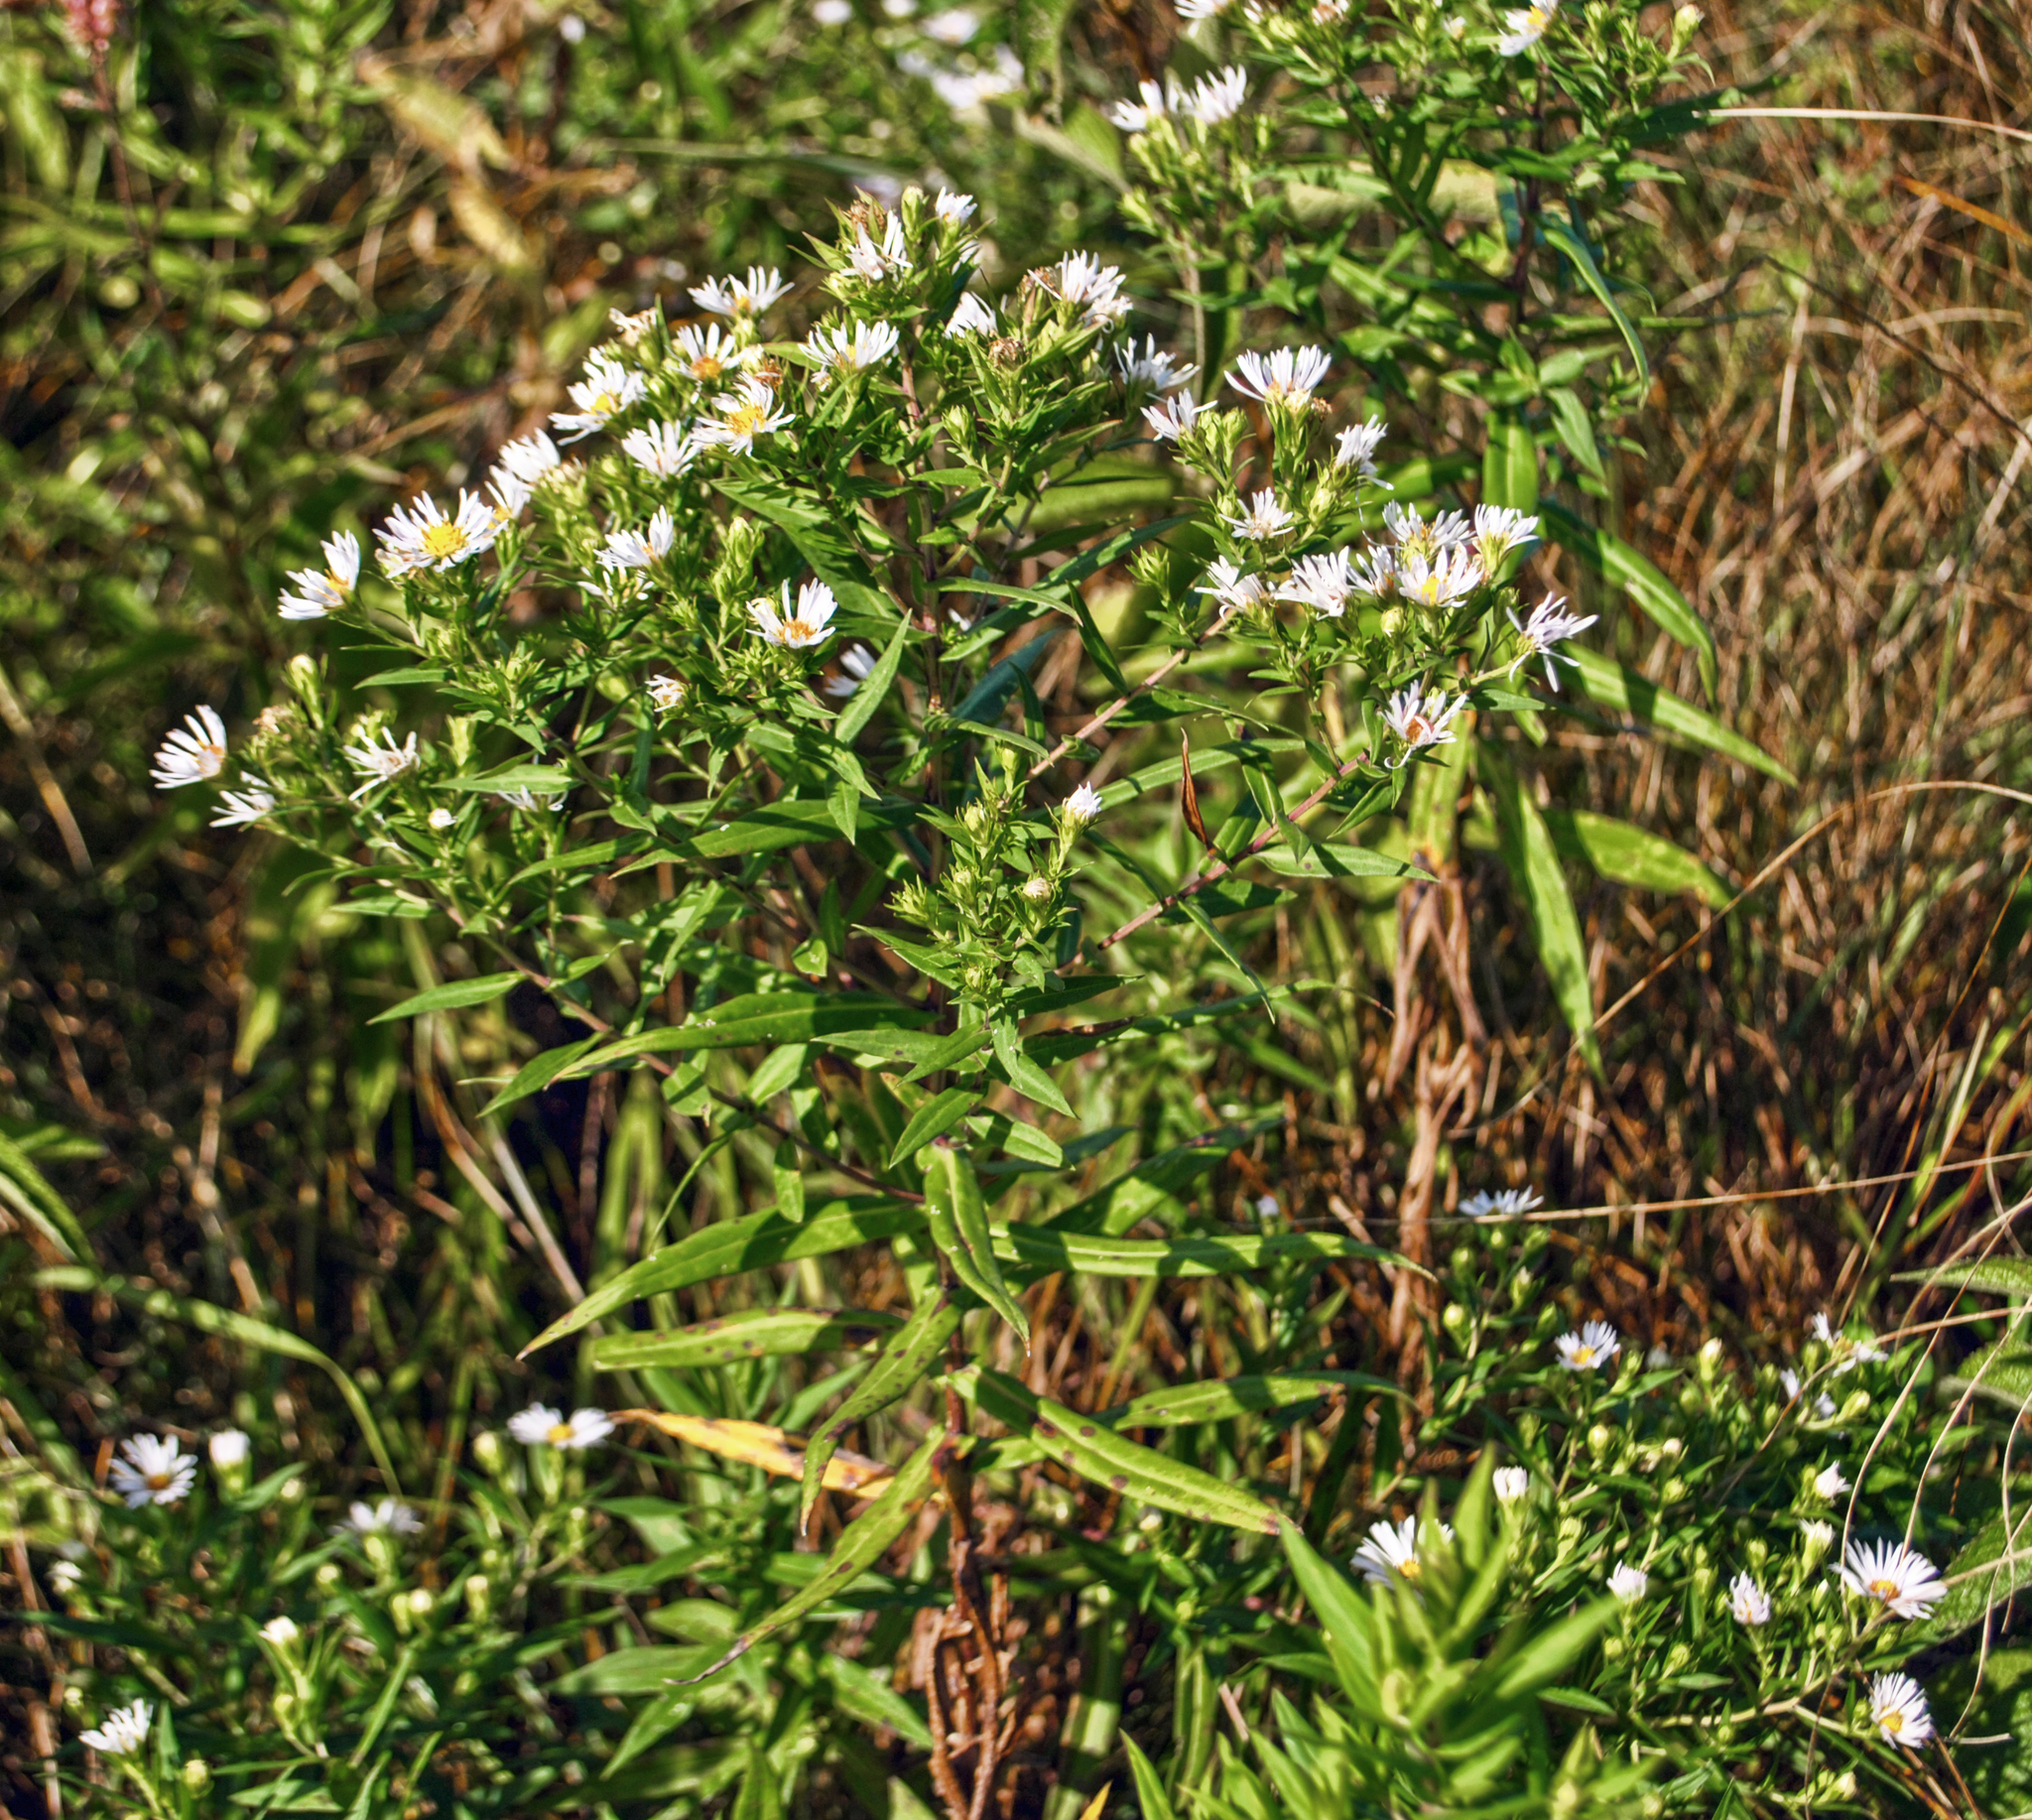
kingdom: Plantae
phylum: Tracheophyta
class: Magnoliopsida
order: Asterales
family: Asteraceae
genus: Symphyotrichum
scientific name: Symphyotrichum firmum
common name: Shining aster
